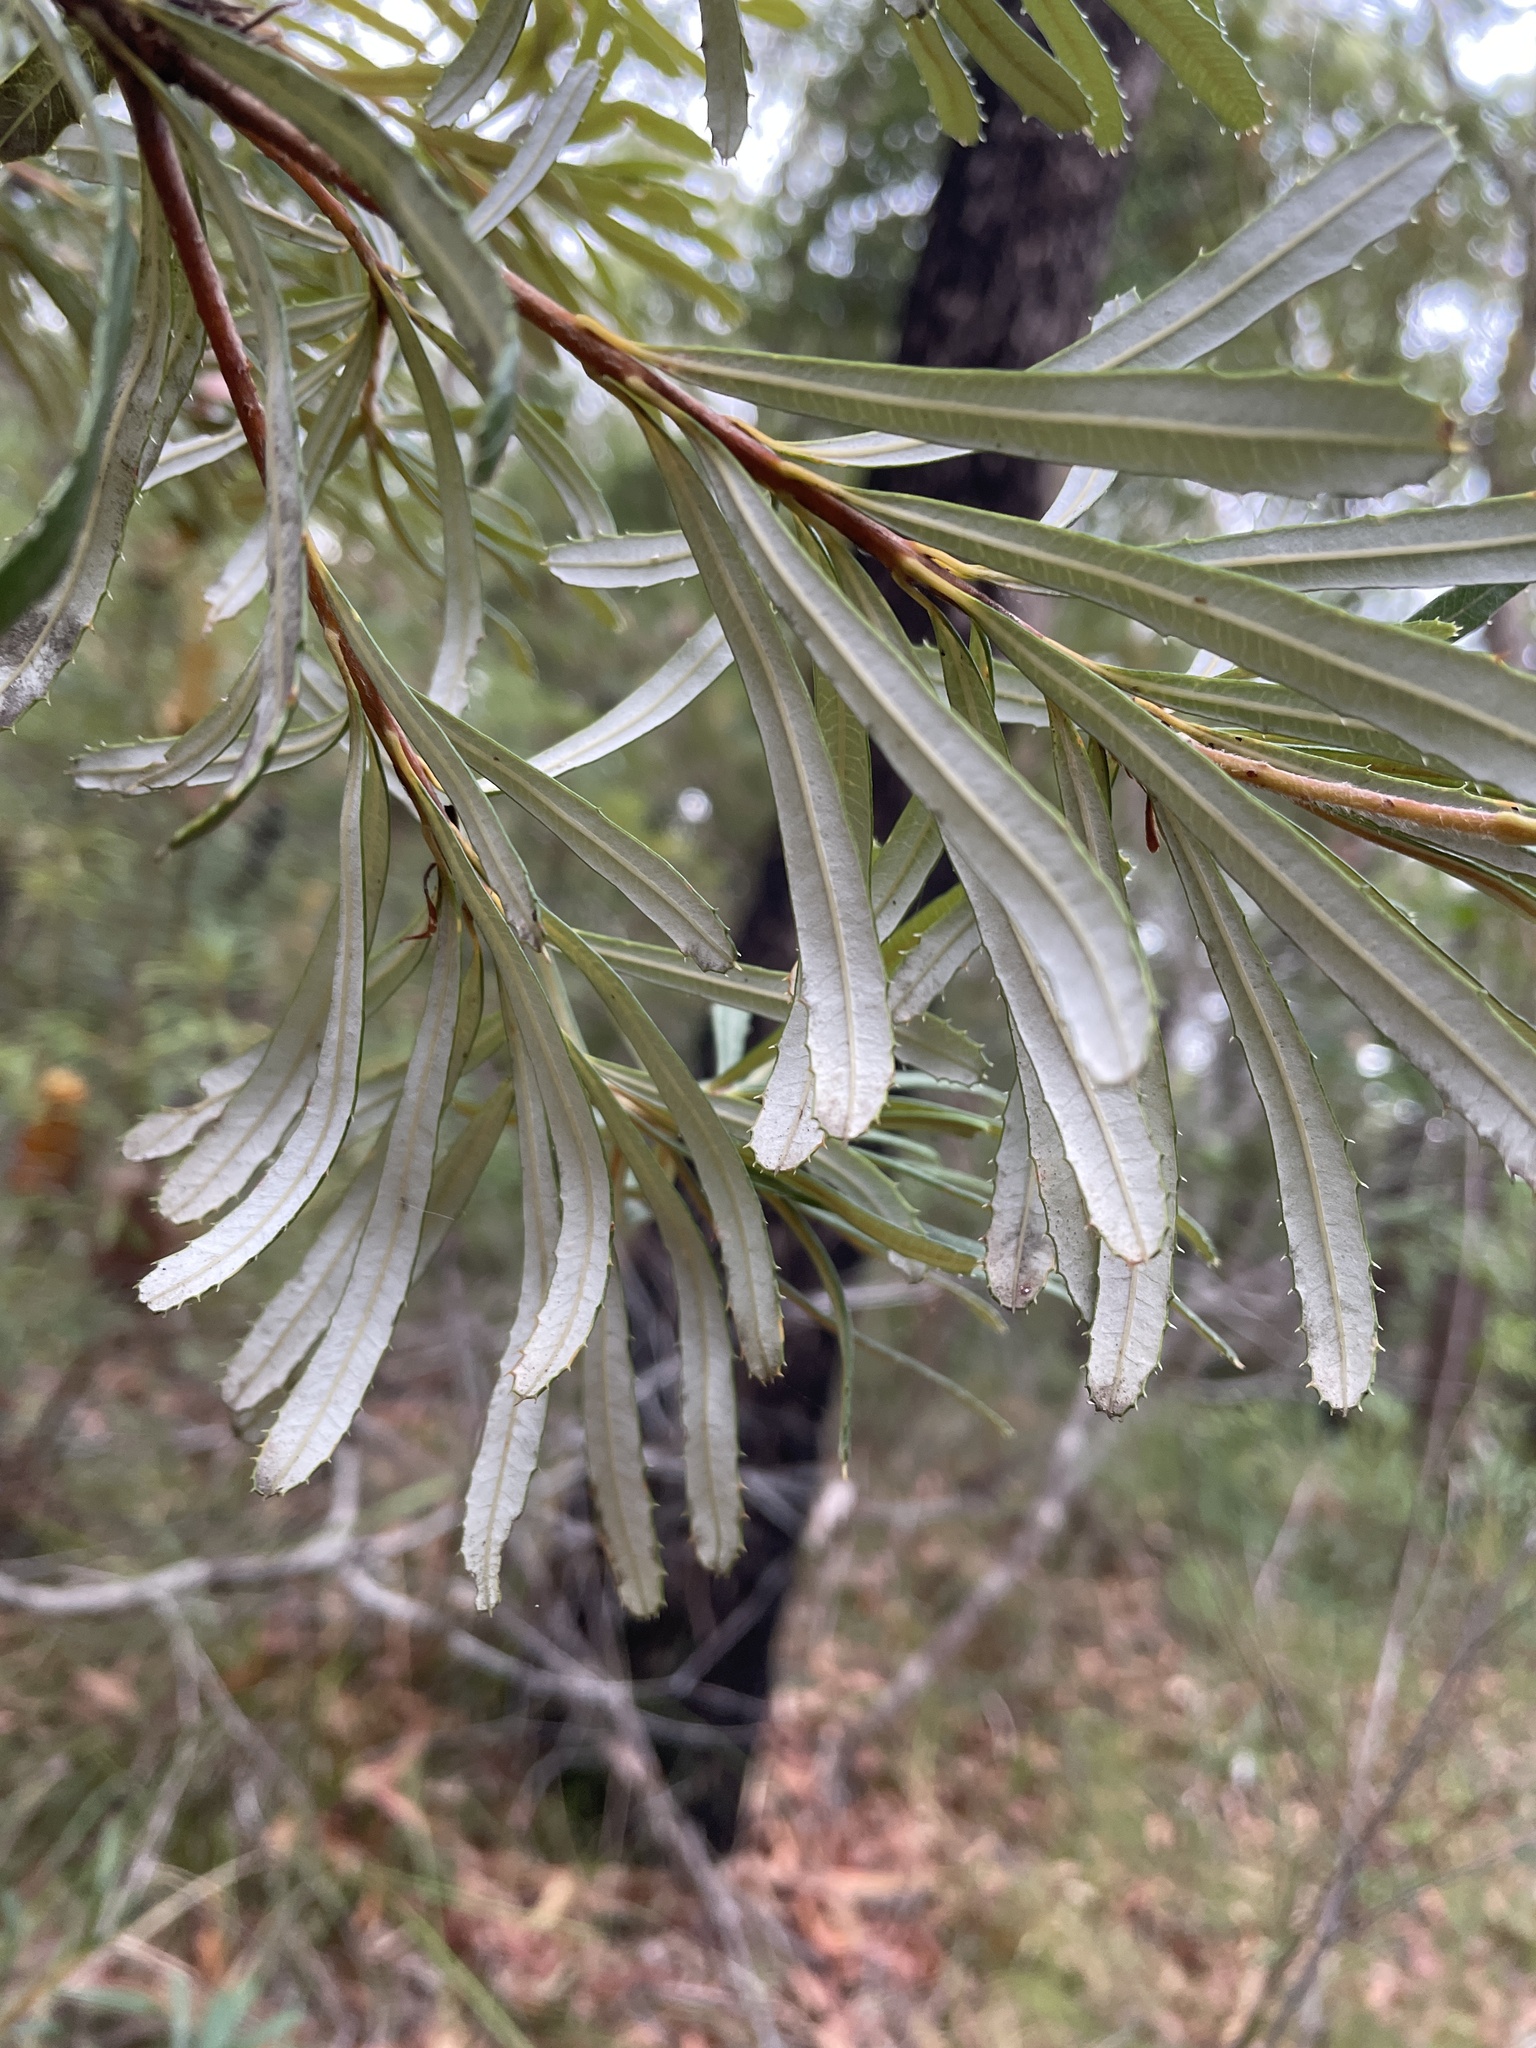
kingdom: Plantae
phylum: Tracheophyta
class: Magnoliopsida
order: Proteales
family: Proteaceae
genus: Banksia
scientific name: Banksia spinulosa
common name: Hairpin banksia
